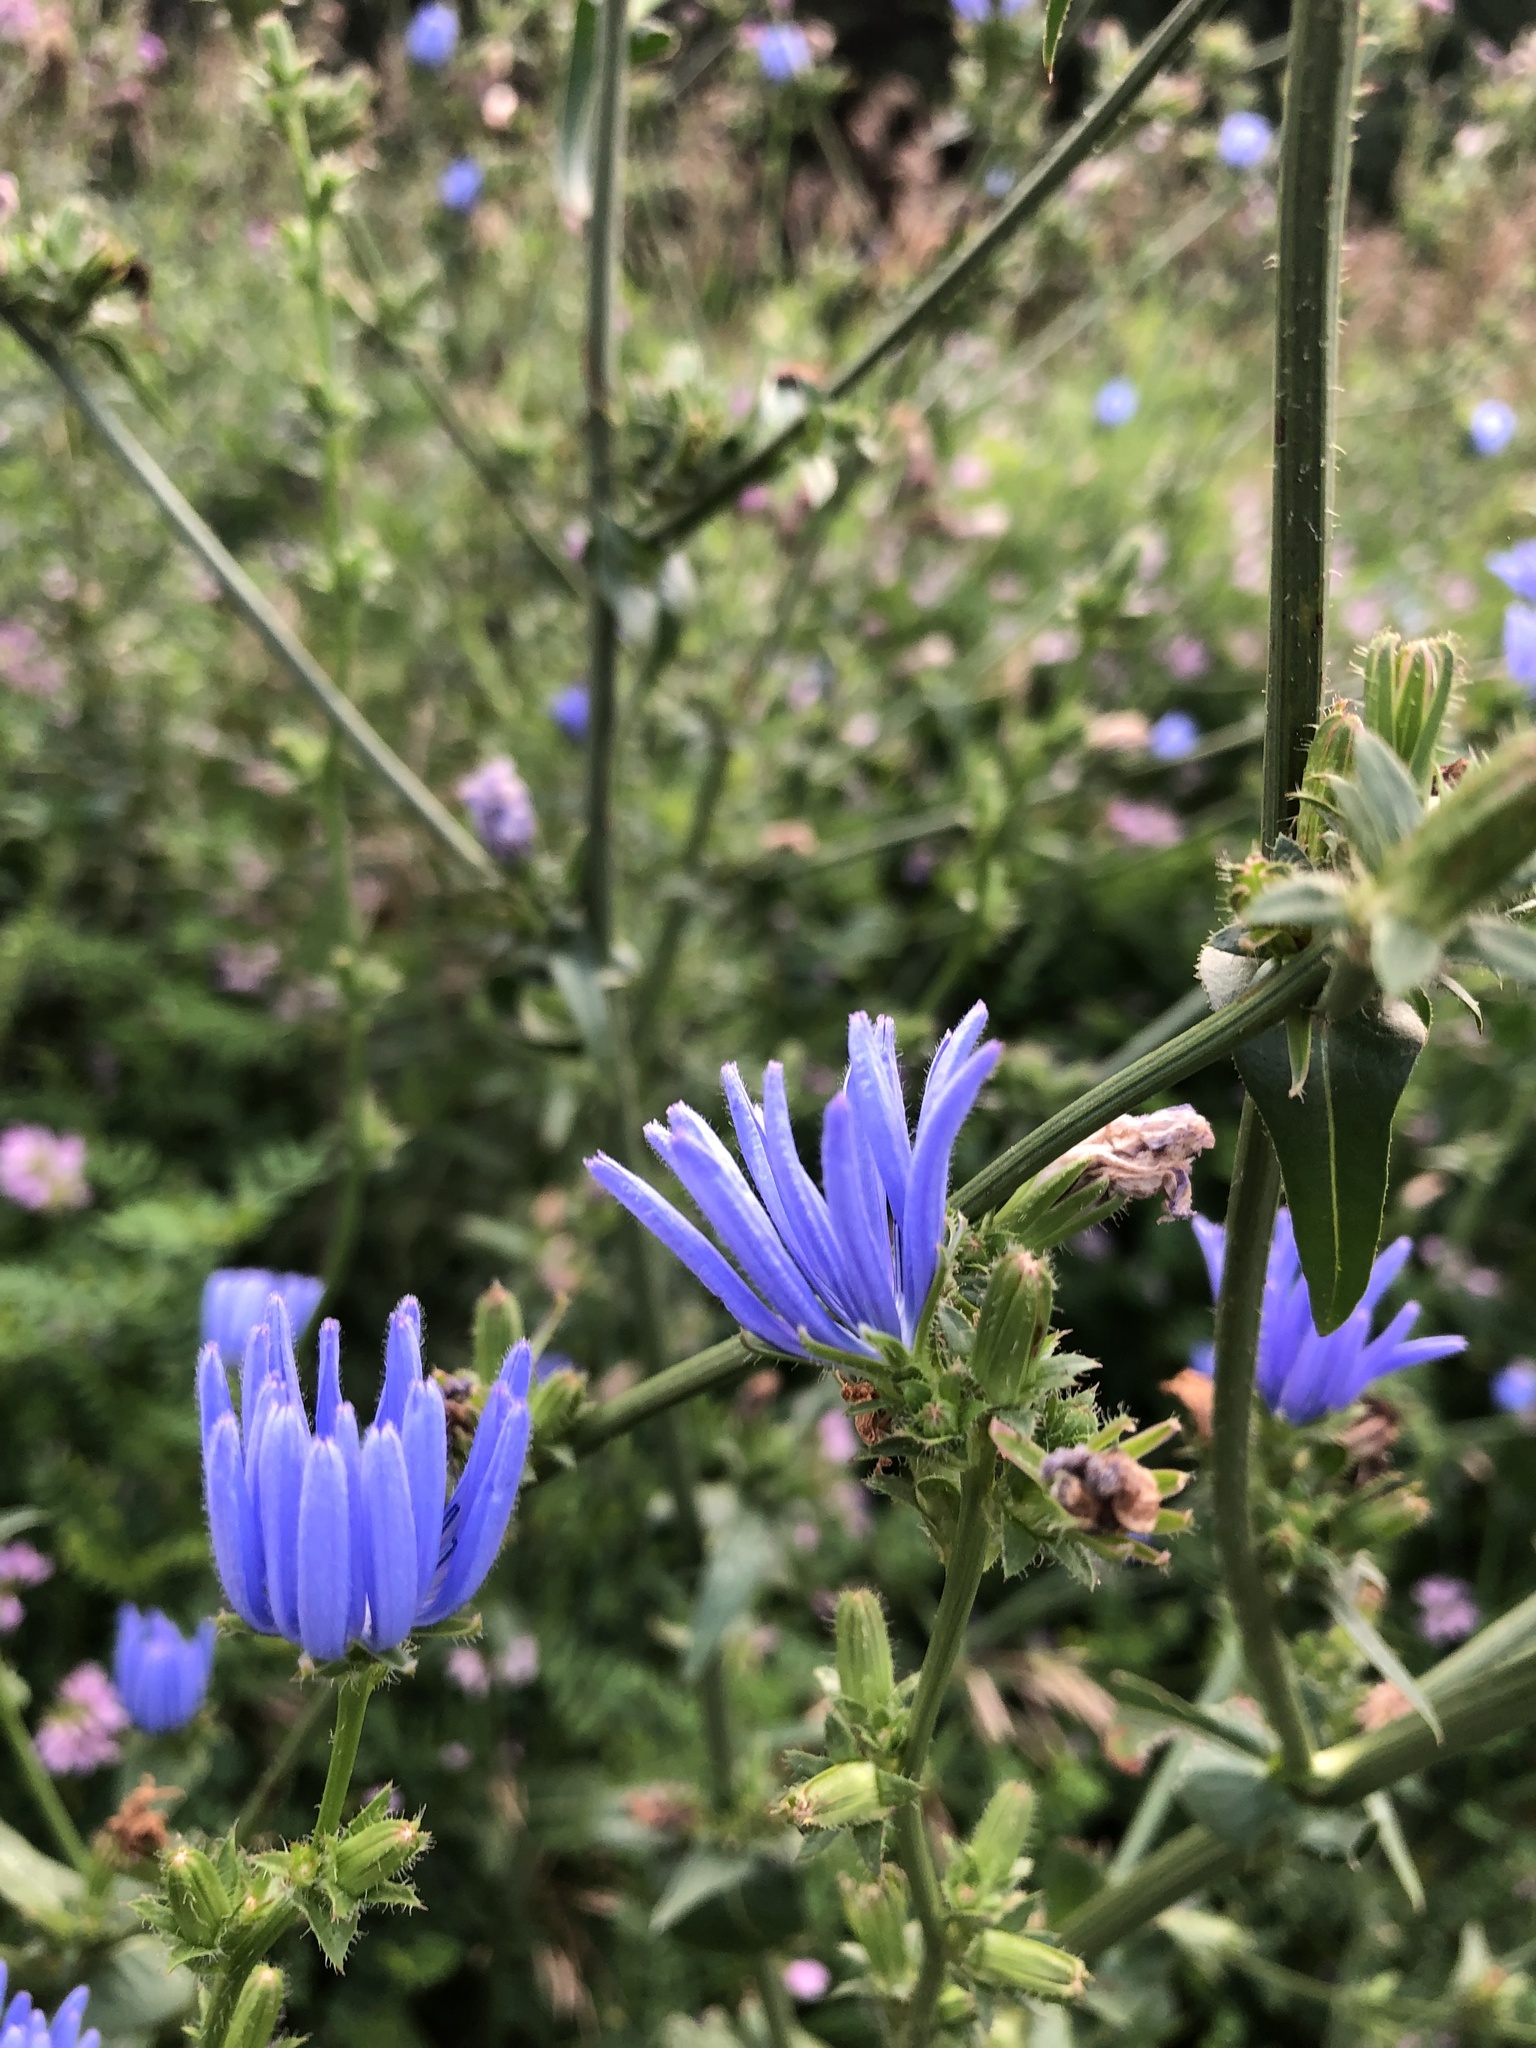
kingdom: Plantae
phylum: Tracheophyta
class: Magnoliopsida
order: Asterales
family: Asteraceae
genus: Cichorium
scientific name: Cichorium intybus
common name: Chicory
